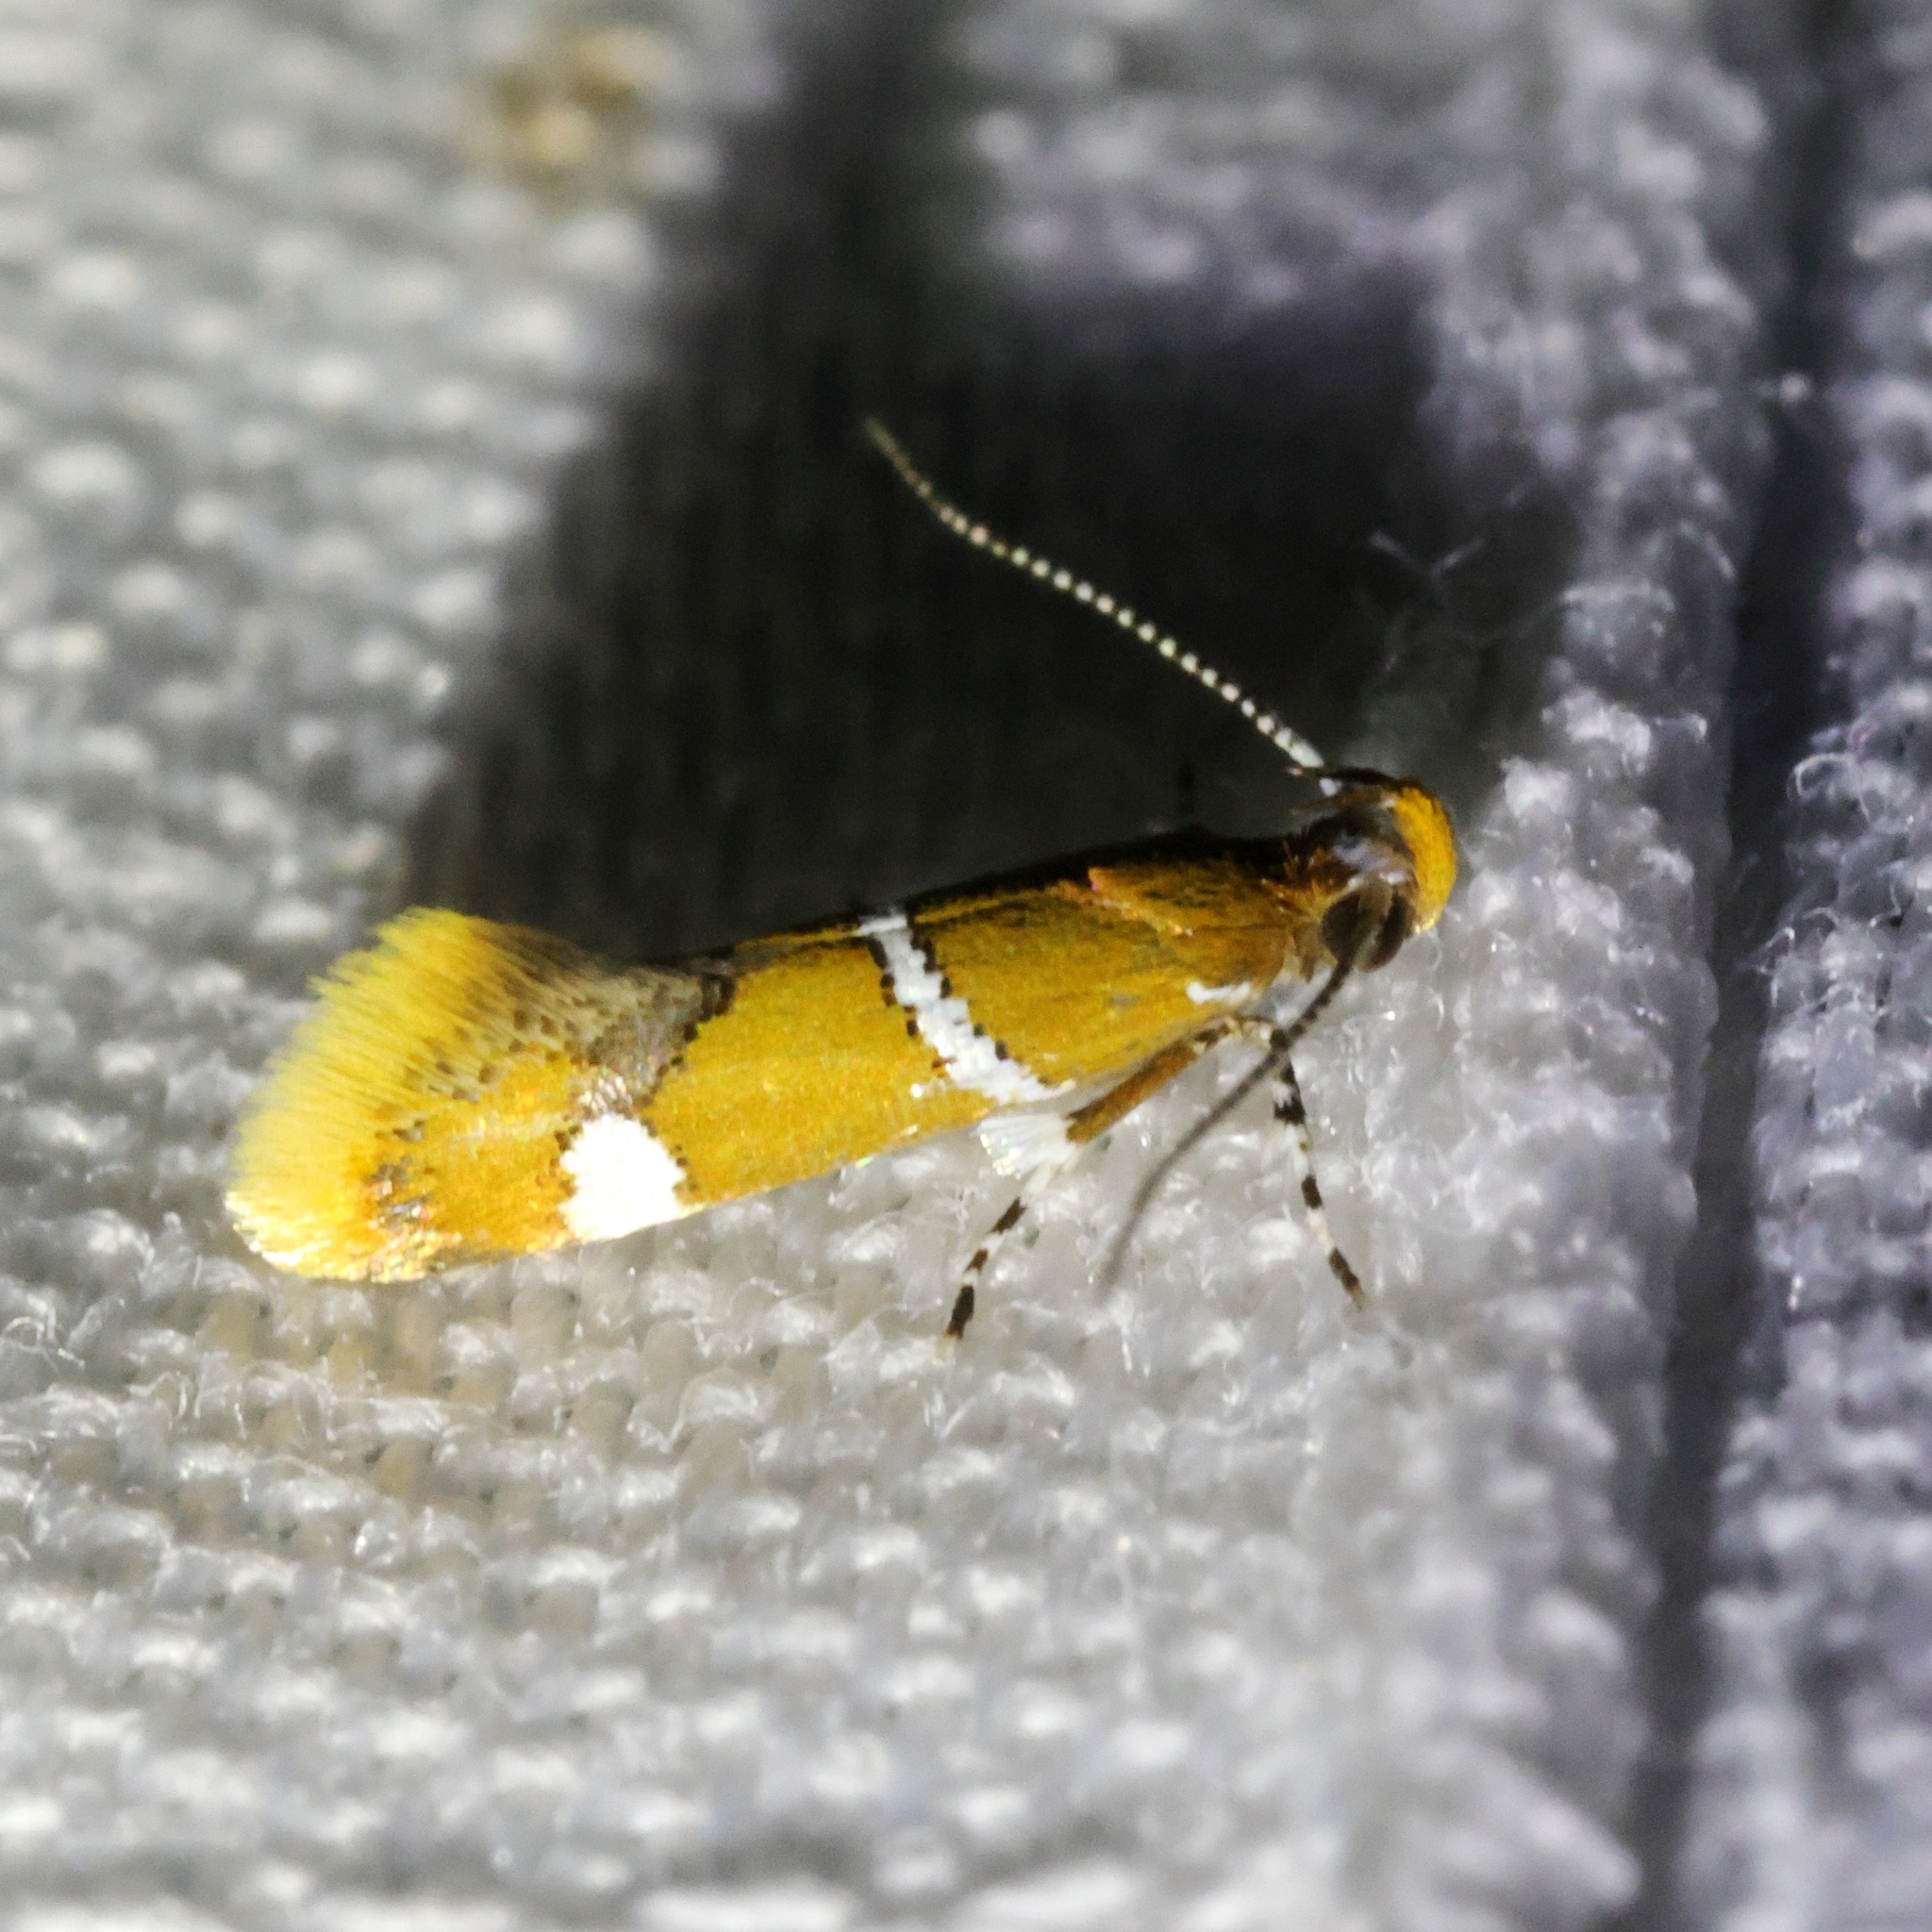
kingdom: Animalia
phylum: Arthropoda
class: Insecta
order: Lepidoptera
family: Oecophoridae
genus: Promalactis
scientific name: Promalactis albisquama
